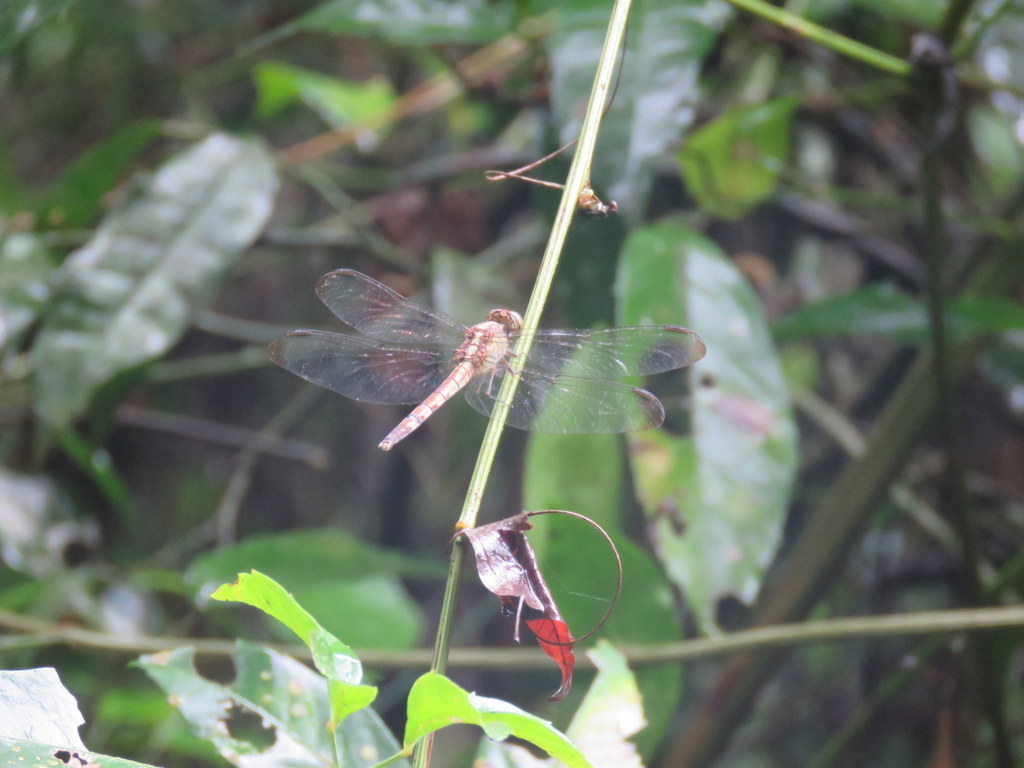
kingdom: Animalia
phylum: Arthropoda
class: Insecta
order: Odonata
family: Libellulidae
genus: Erythrodiplax
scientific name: Erythrodiplax umbrata
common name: Band-winged dragonlet
